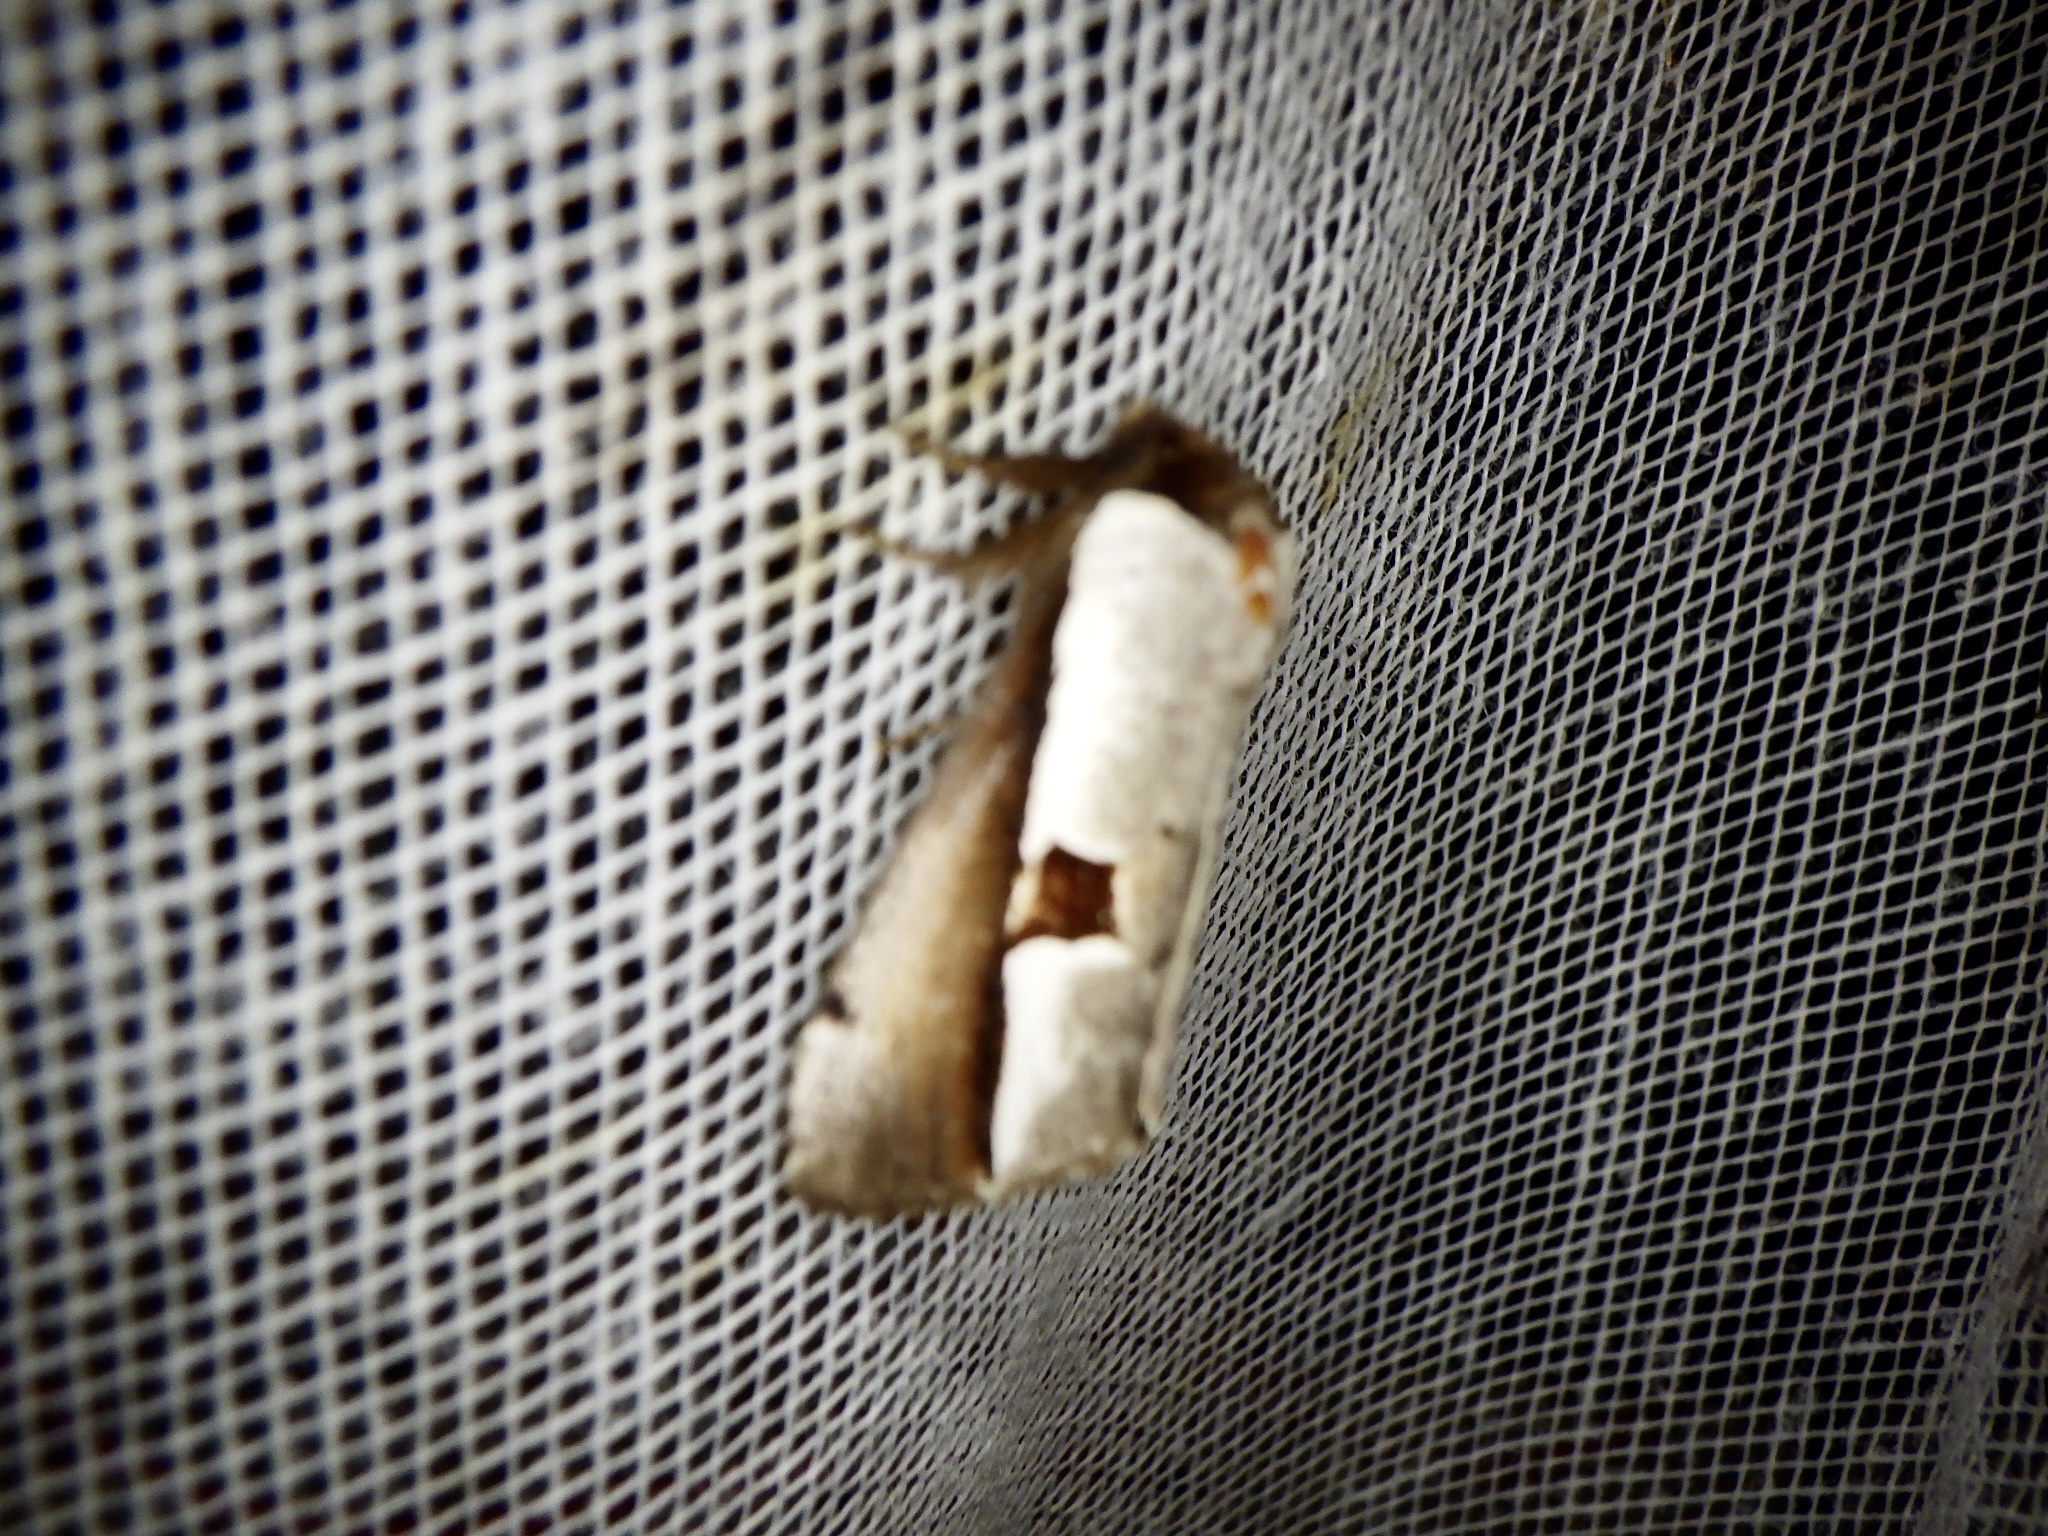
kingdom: Animalia
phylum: Arthropoda
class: Insecta
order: Lepidoptera
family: Notodontidae
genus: Nerice
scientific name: Nerice bipartita
